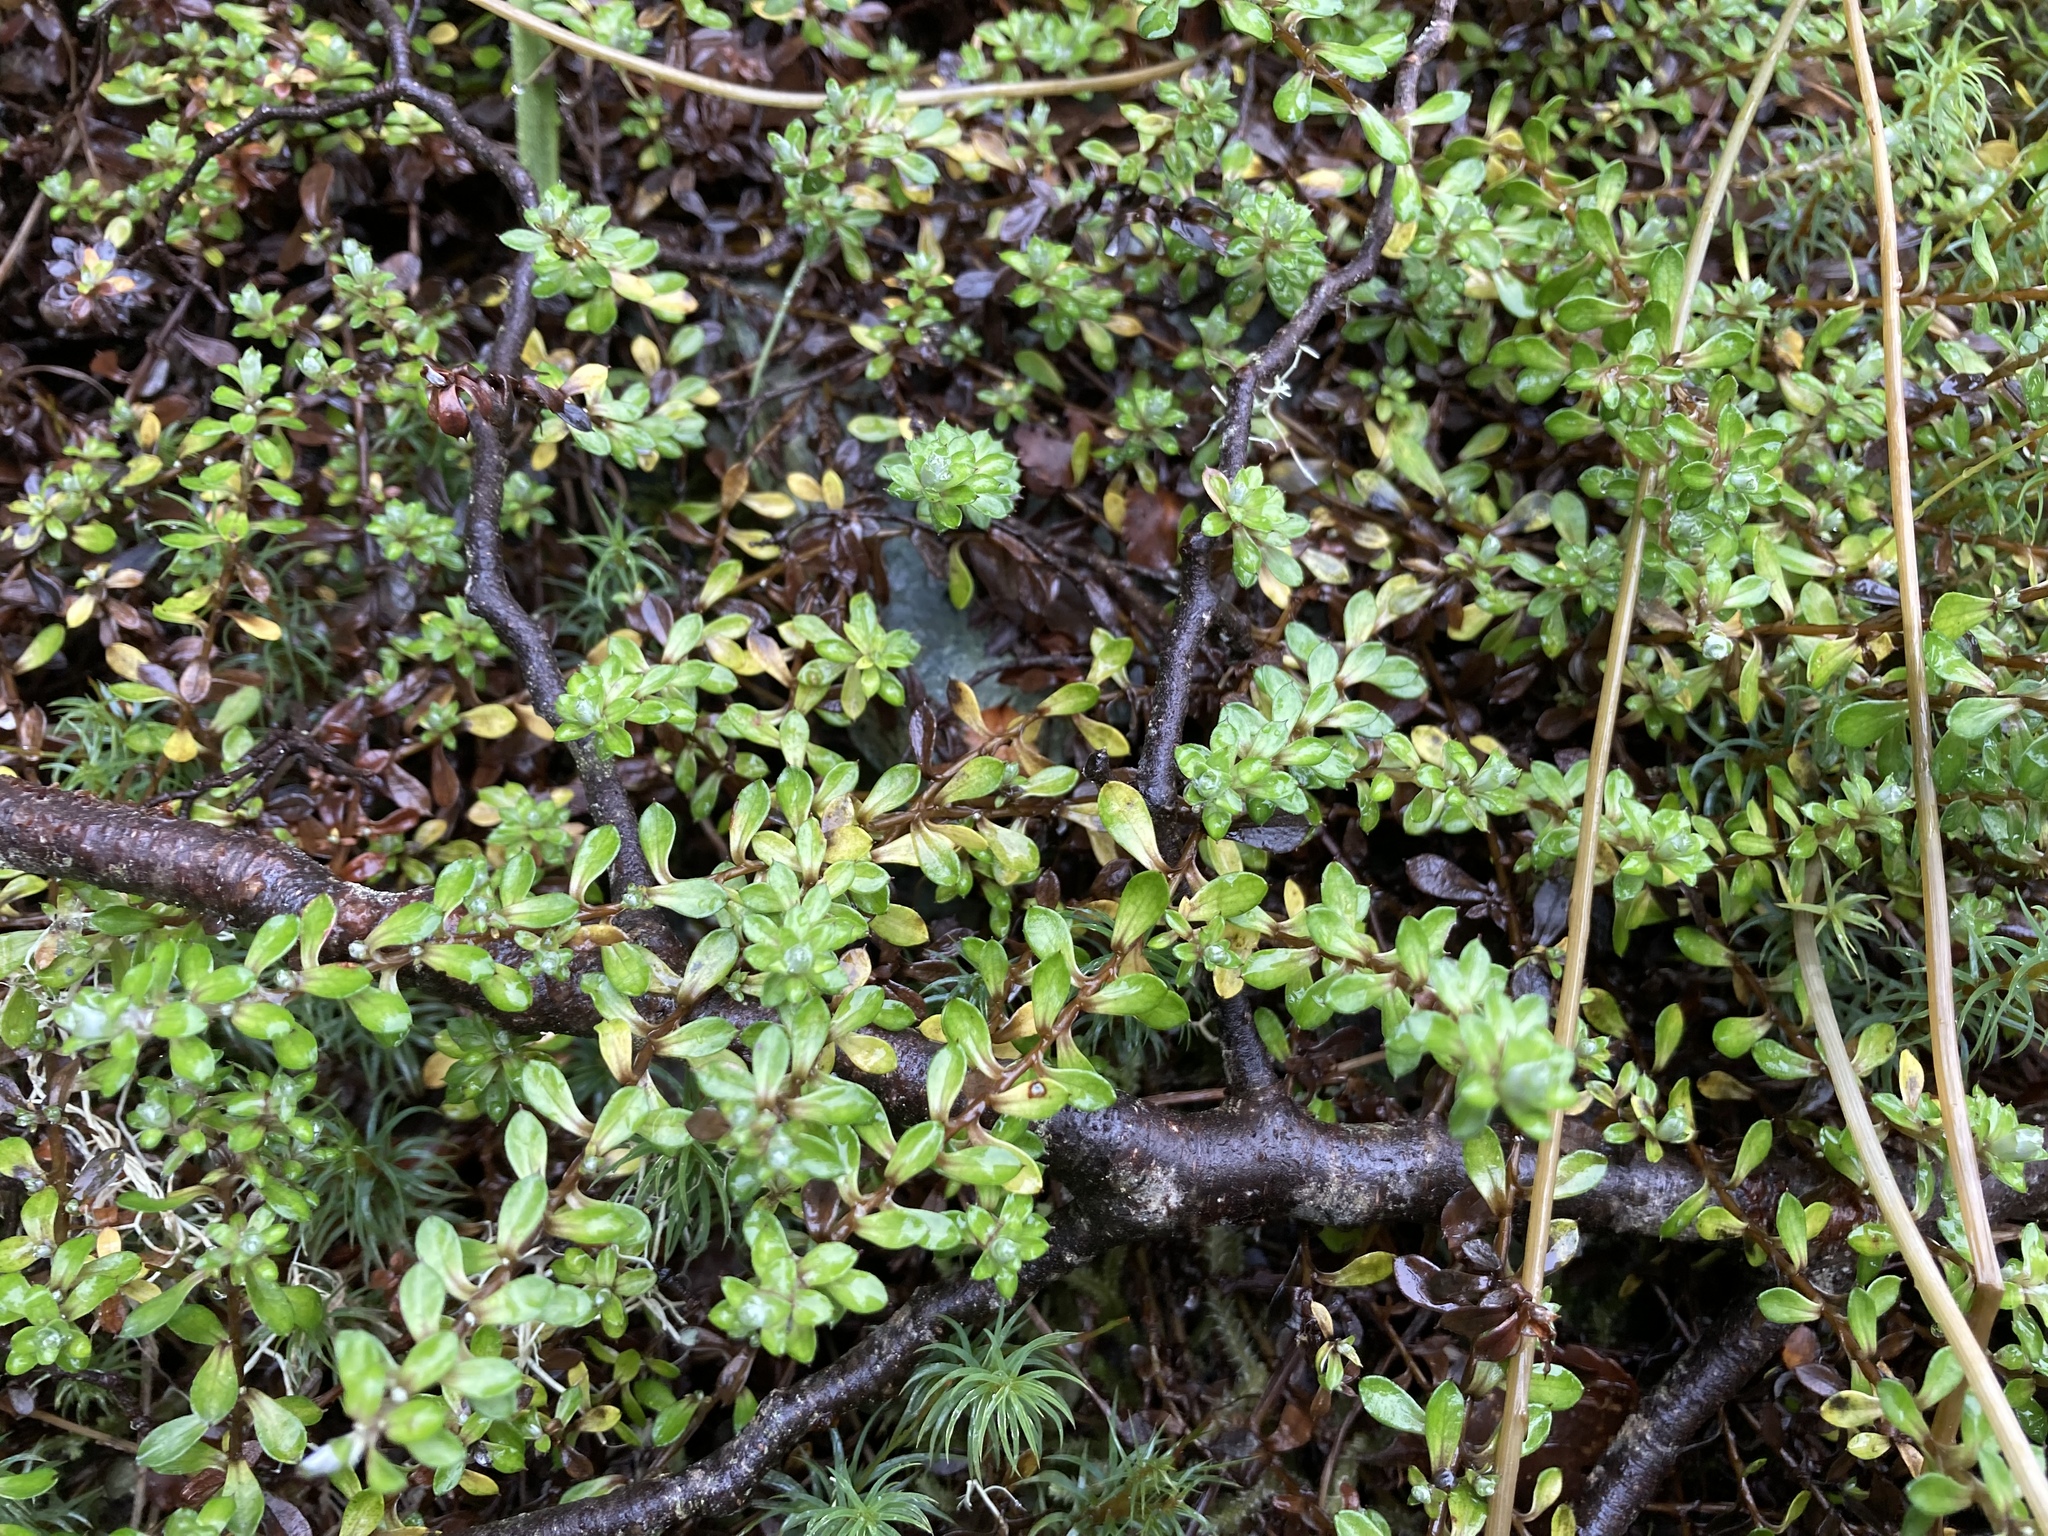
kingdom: Plantae
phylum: Tracheophyta
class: Magnoliopsida
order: Asterales
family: Asteraceae
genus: Anaphalioides
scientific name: Anaphalioides bellidioides
